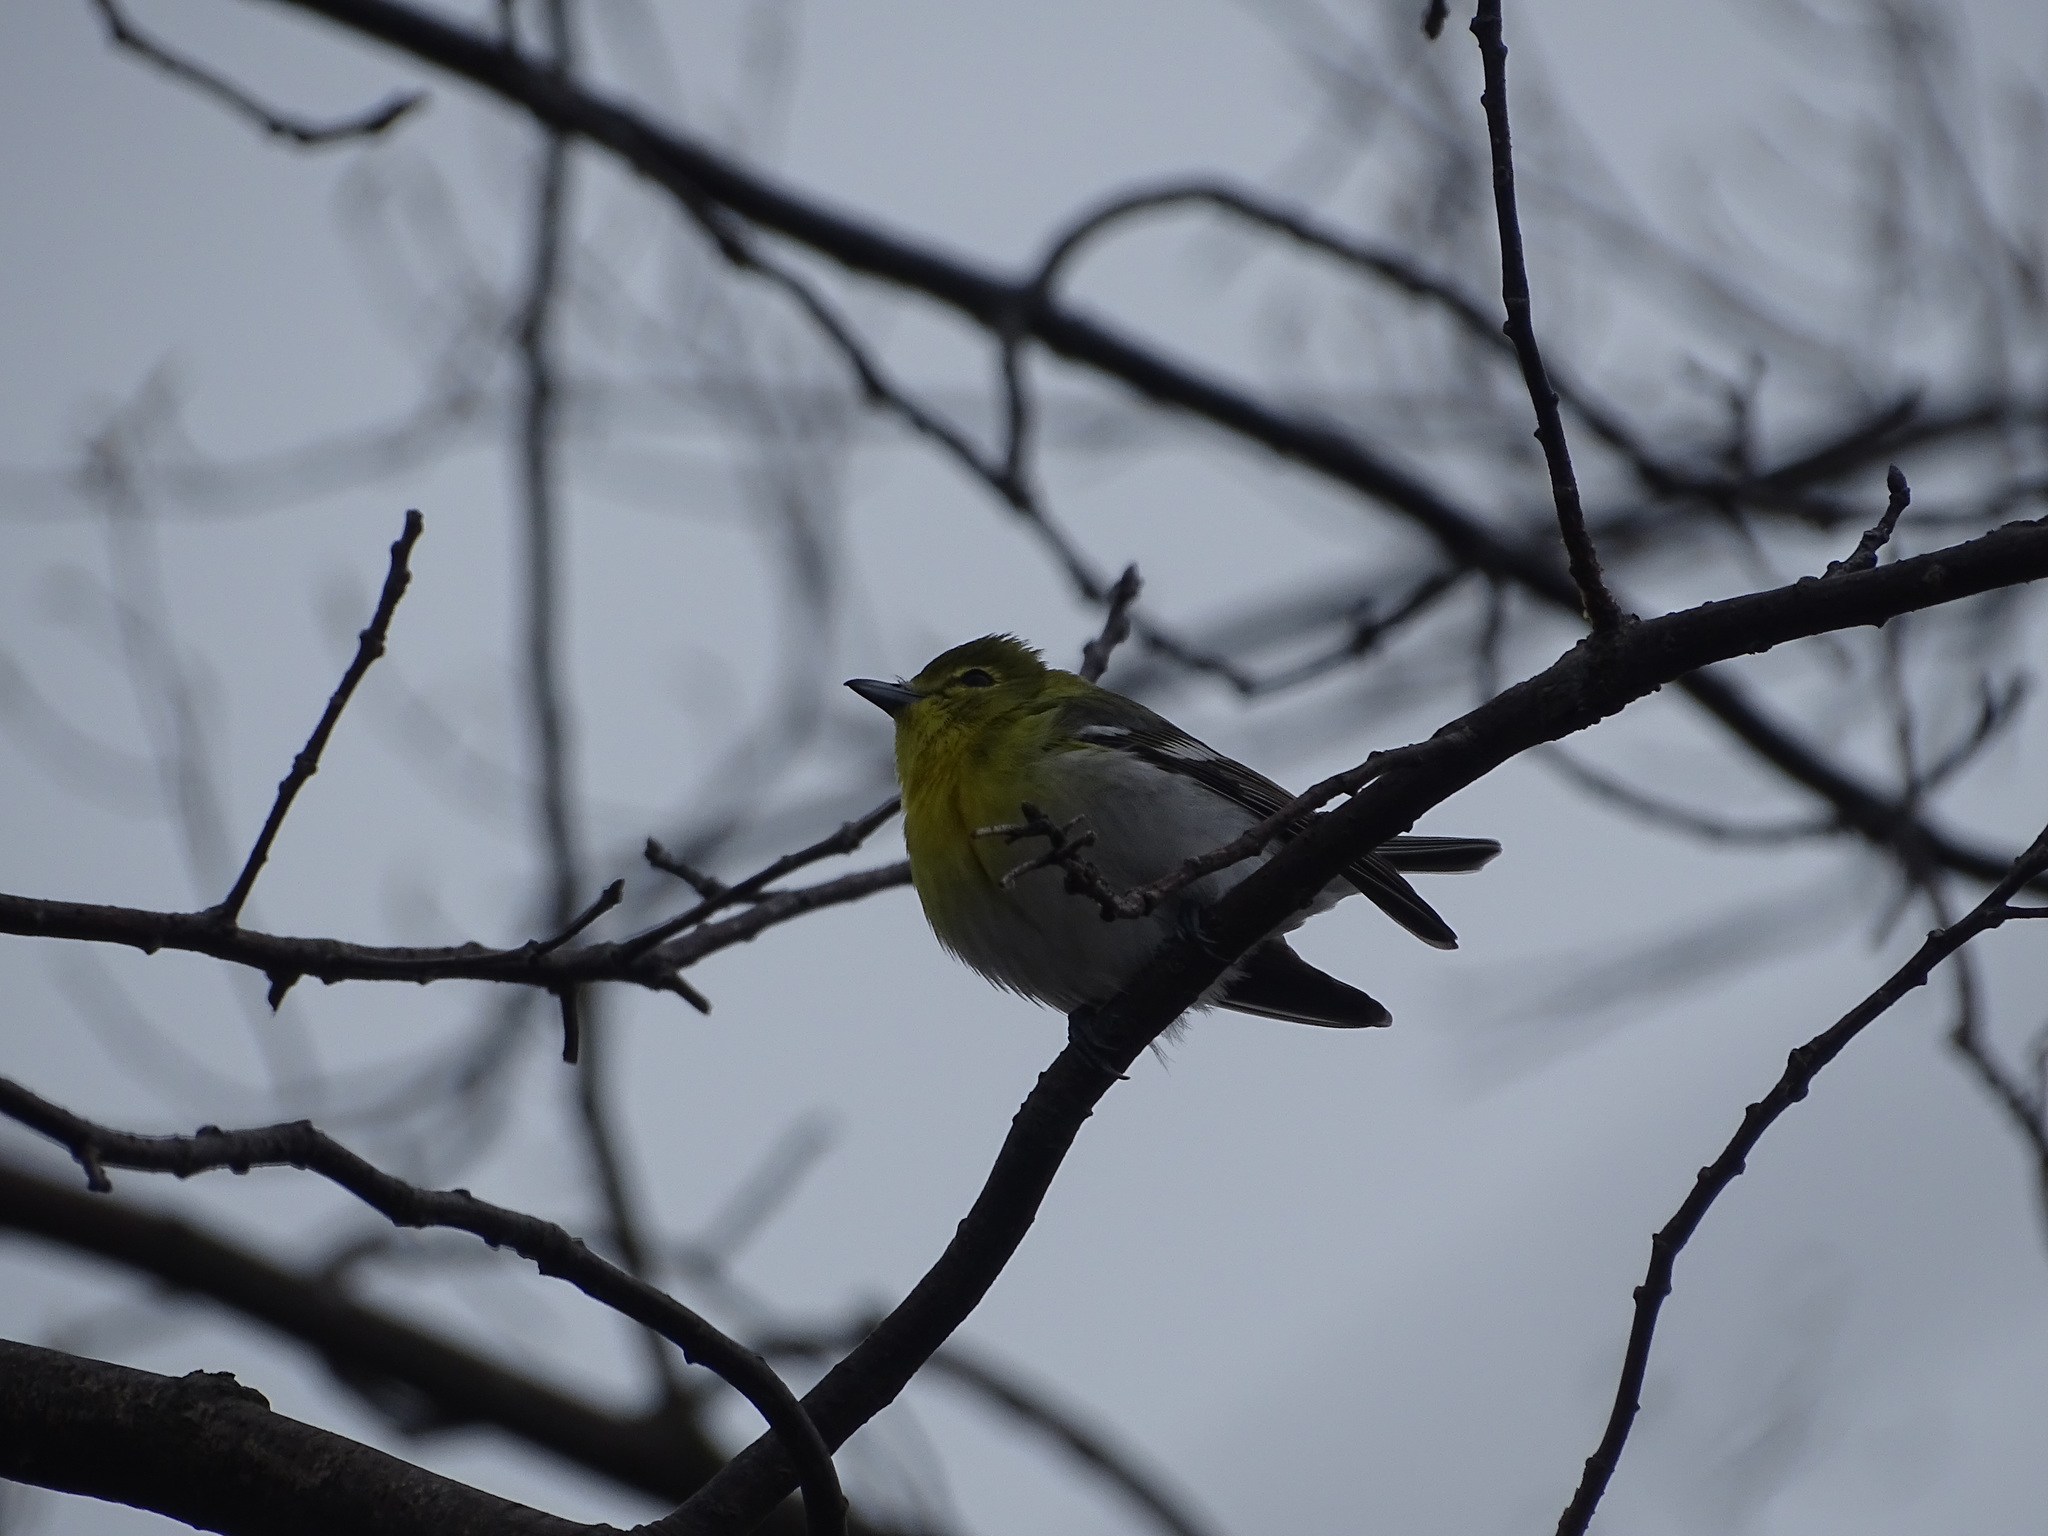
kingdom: Animalia
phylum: Chordata
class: Aves
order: Passeriformes
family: Vireonidae
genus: Vireo
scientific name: Vireo flavifrons
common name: Yellow-throated vireo
